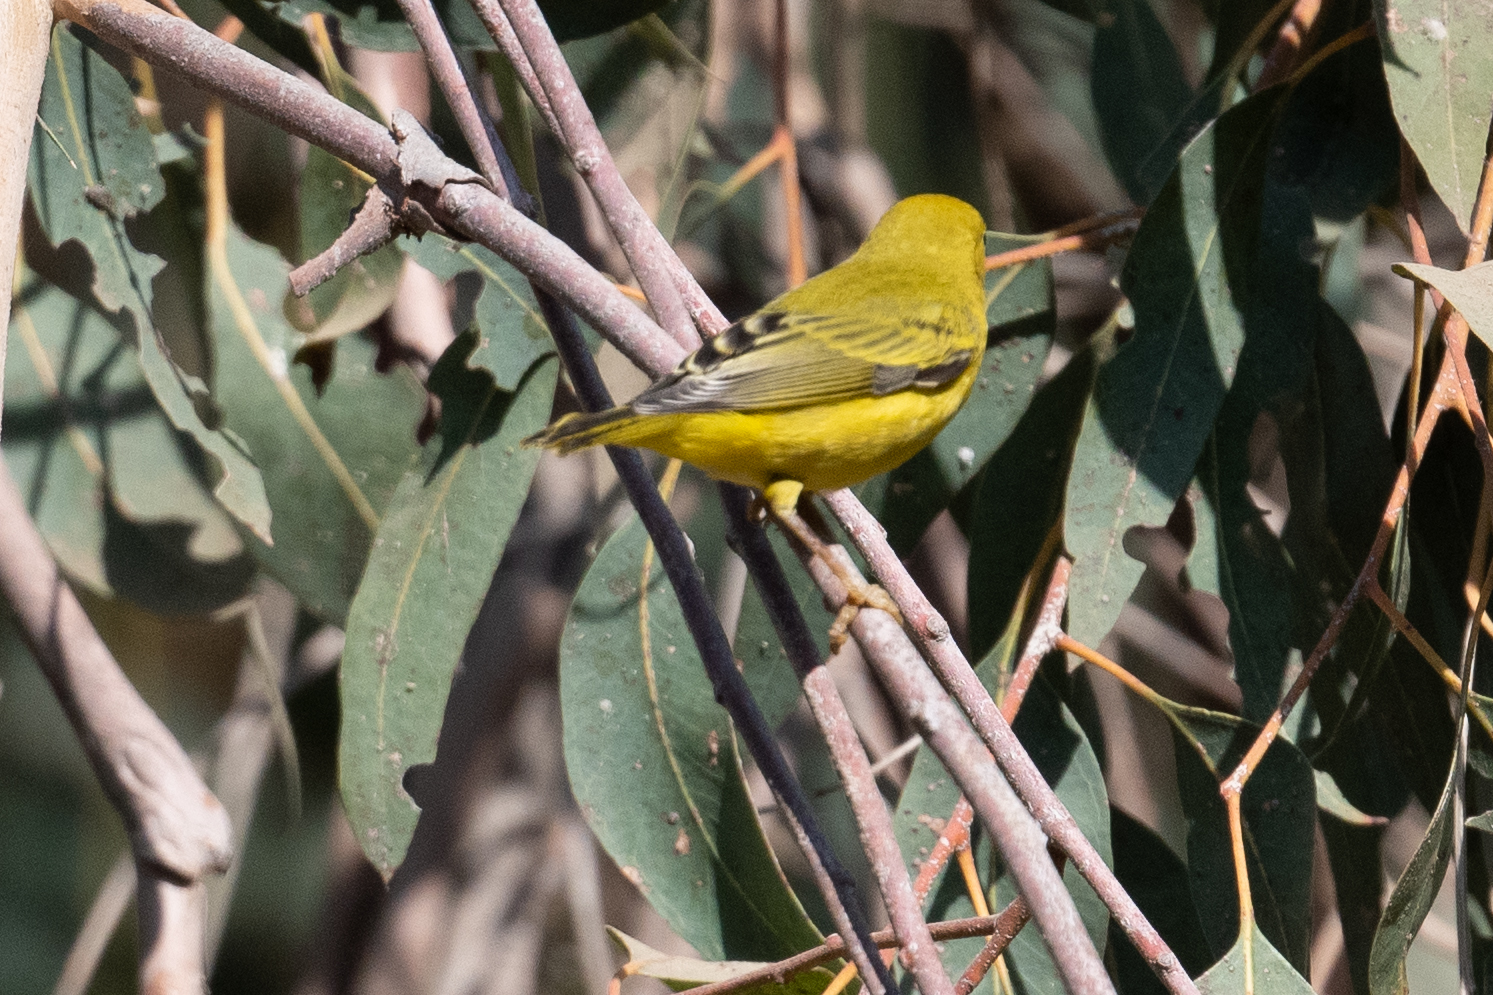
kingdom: Animalia
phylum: Chordata
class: Aves
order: Passeriformes
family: Parulidae
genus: Setophaga
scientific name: Setophaga petechia
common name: Yellow warbler
